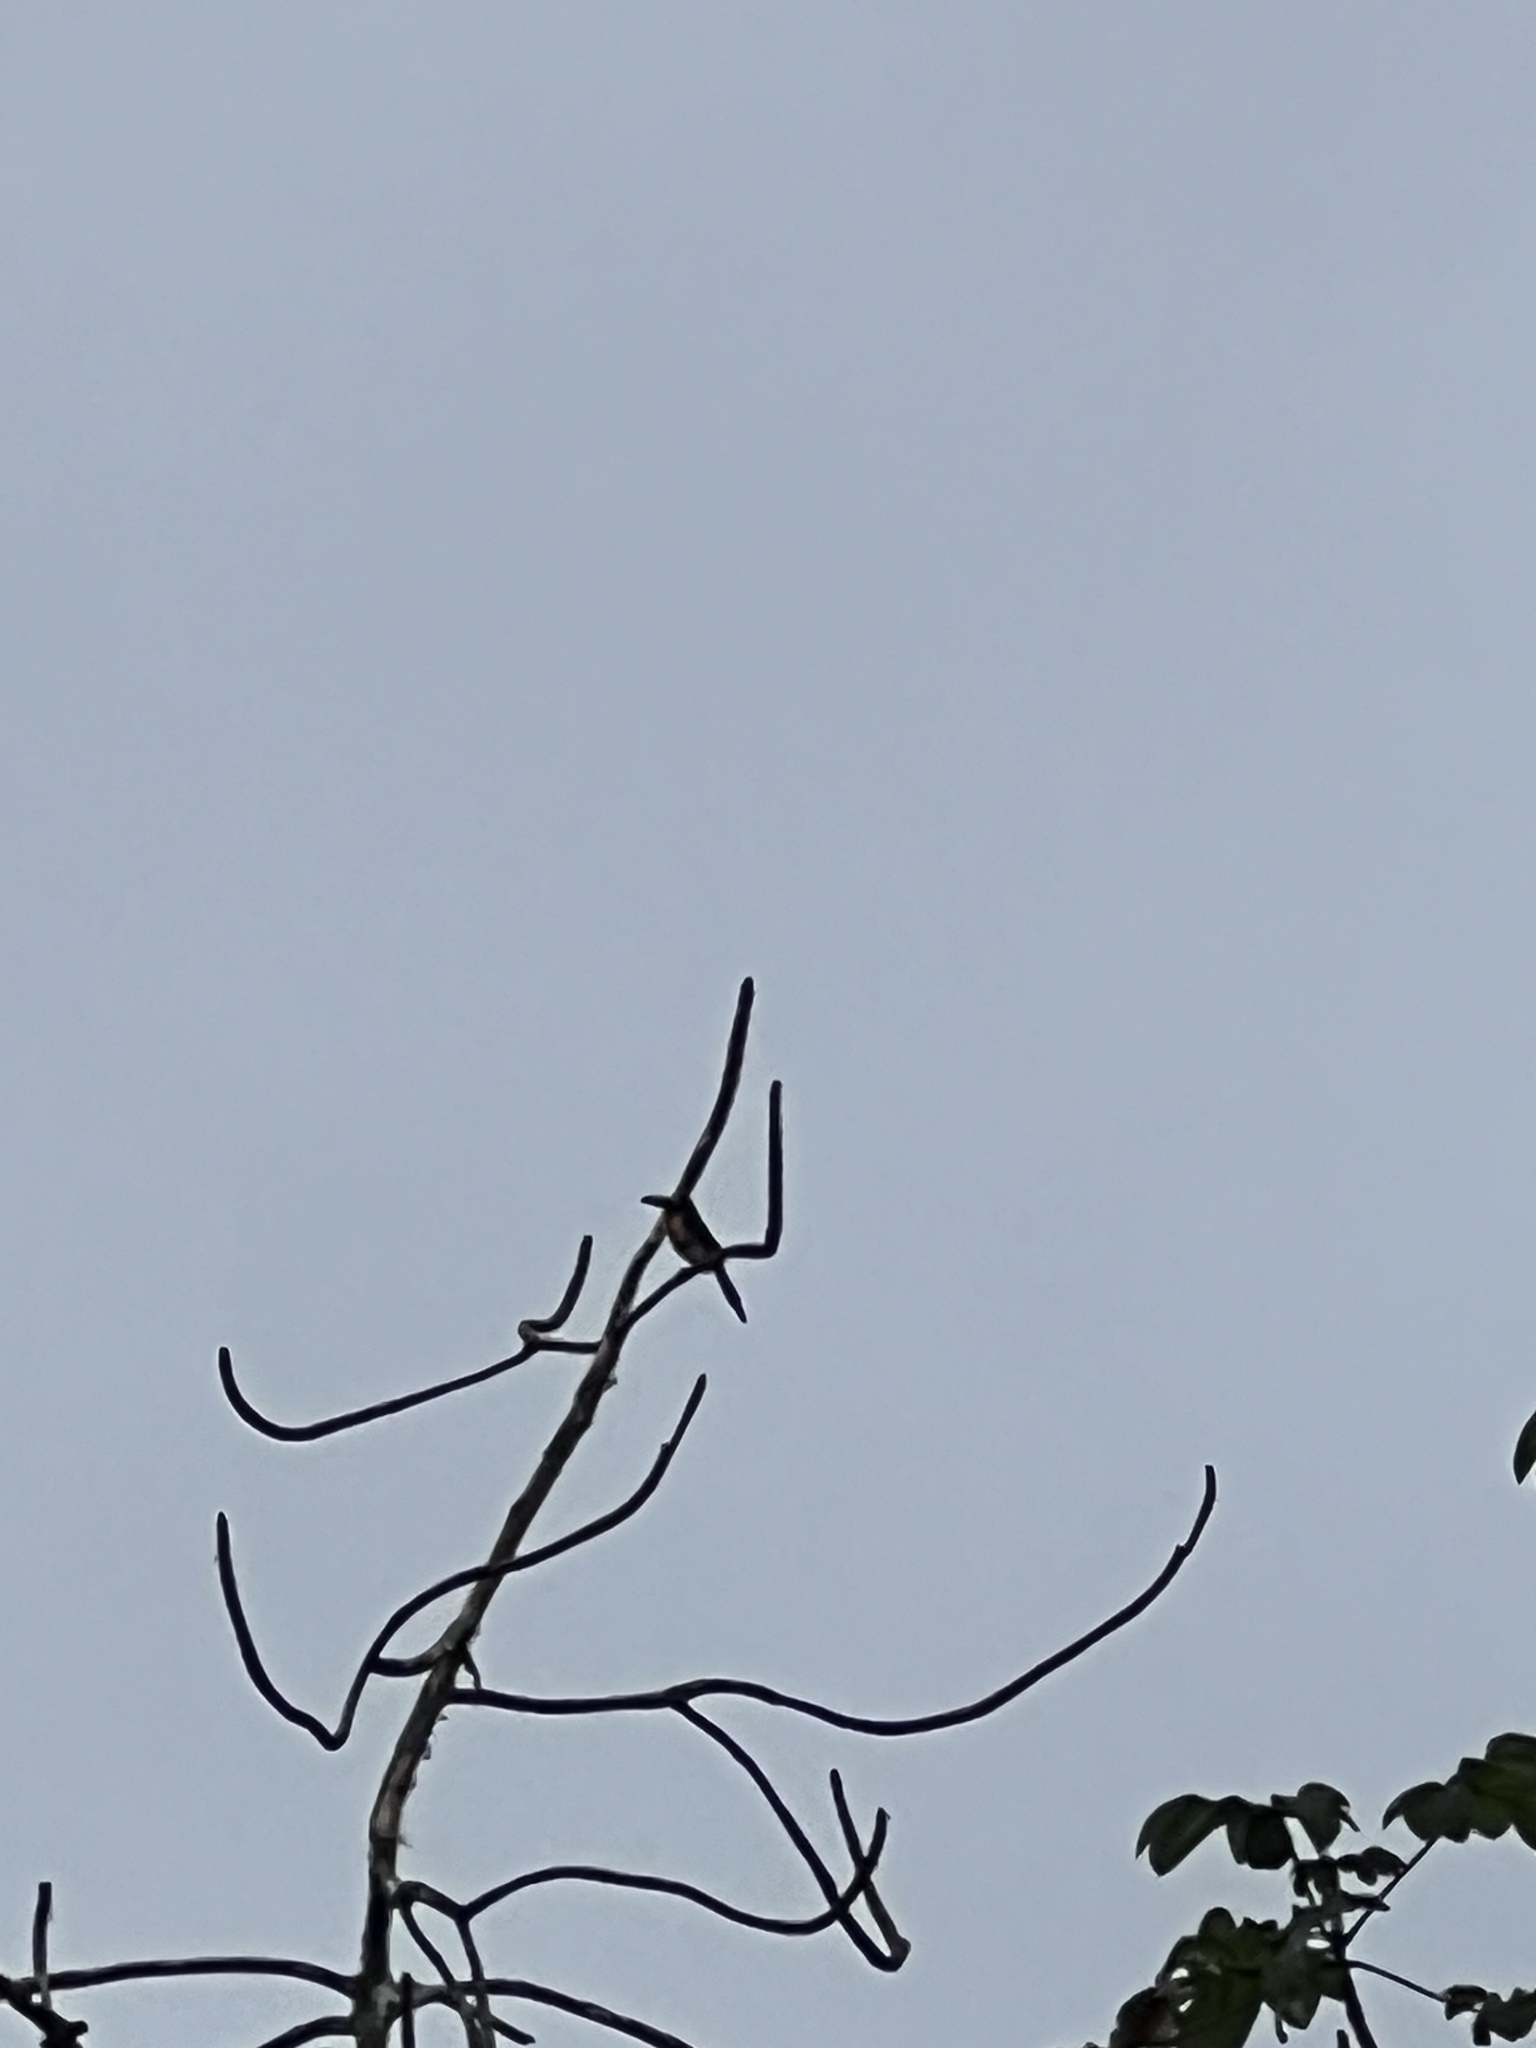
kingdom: Animalia
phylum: Chordata
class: Aves
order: Piciformes
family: Ramphastidae
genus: Pteroglossus
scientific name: Pteroglossus torquatus
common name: Collared aracari
